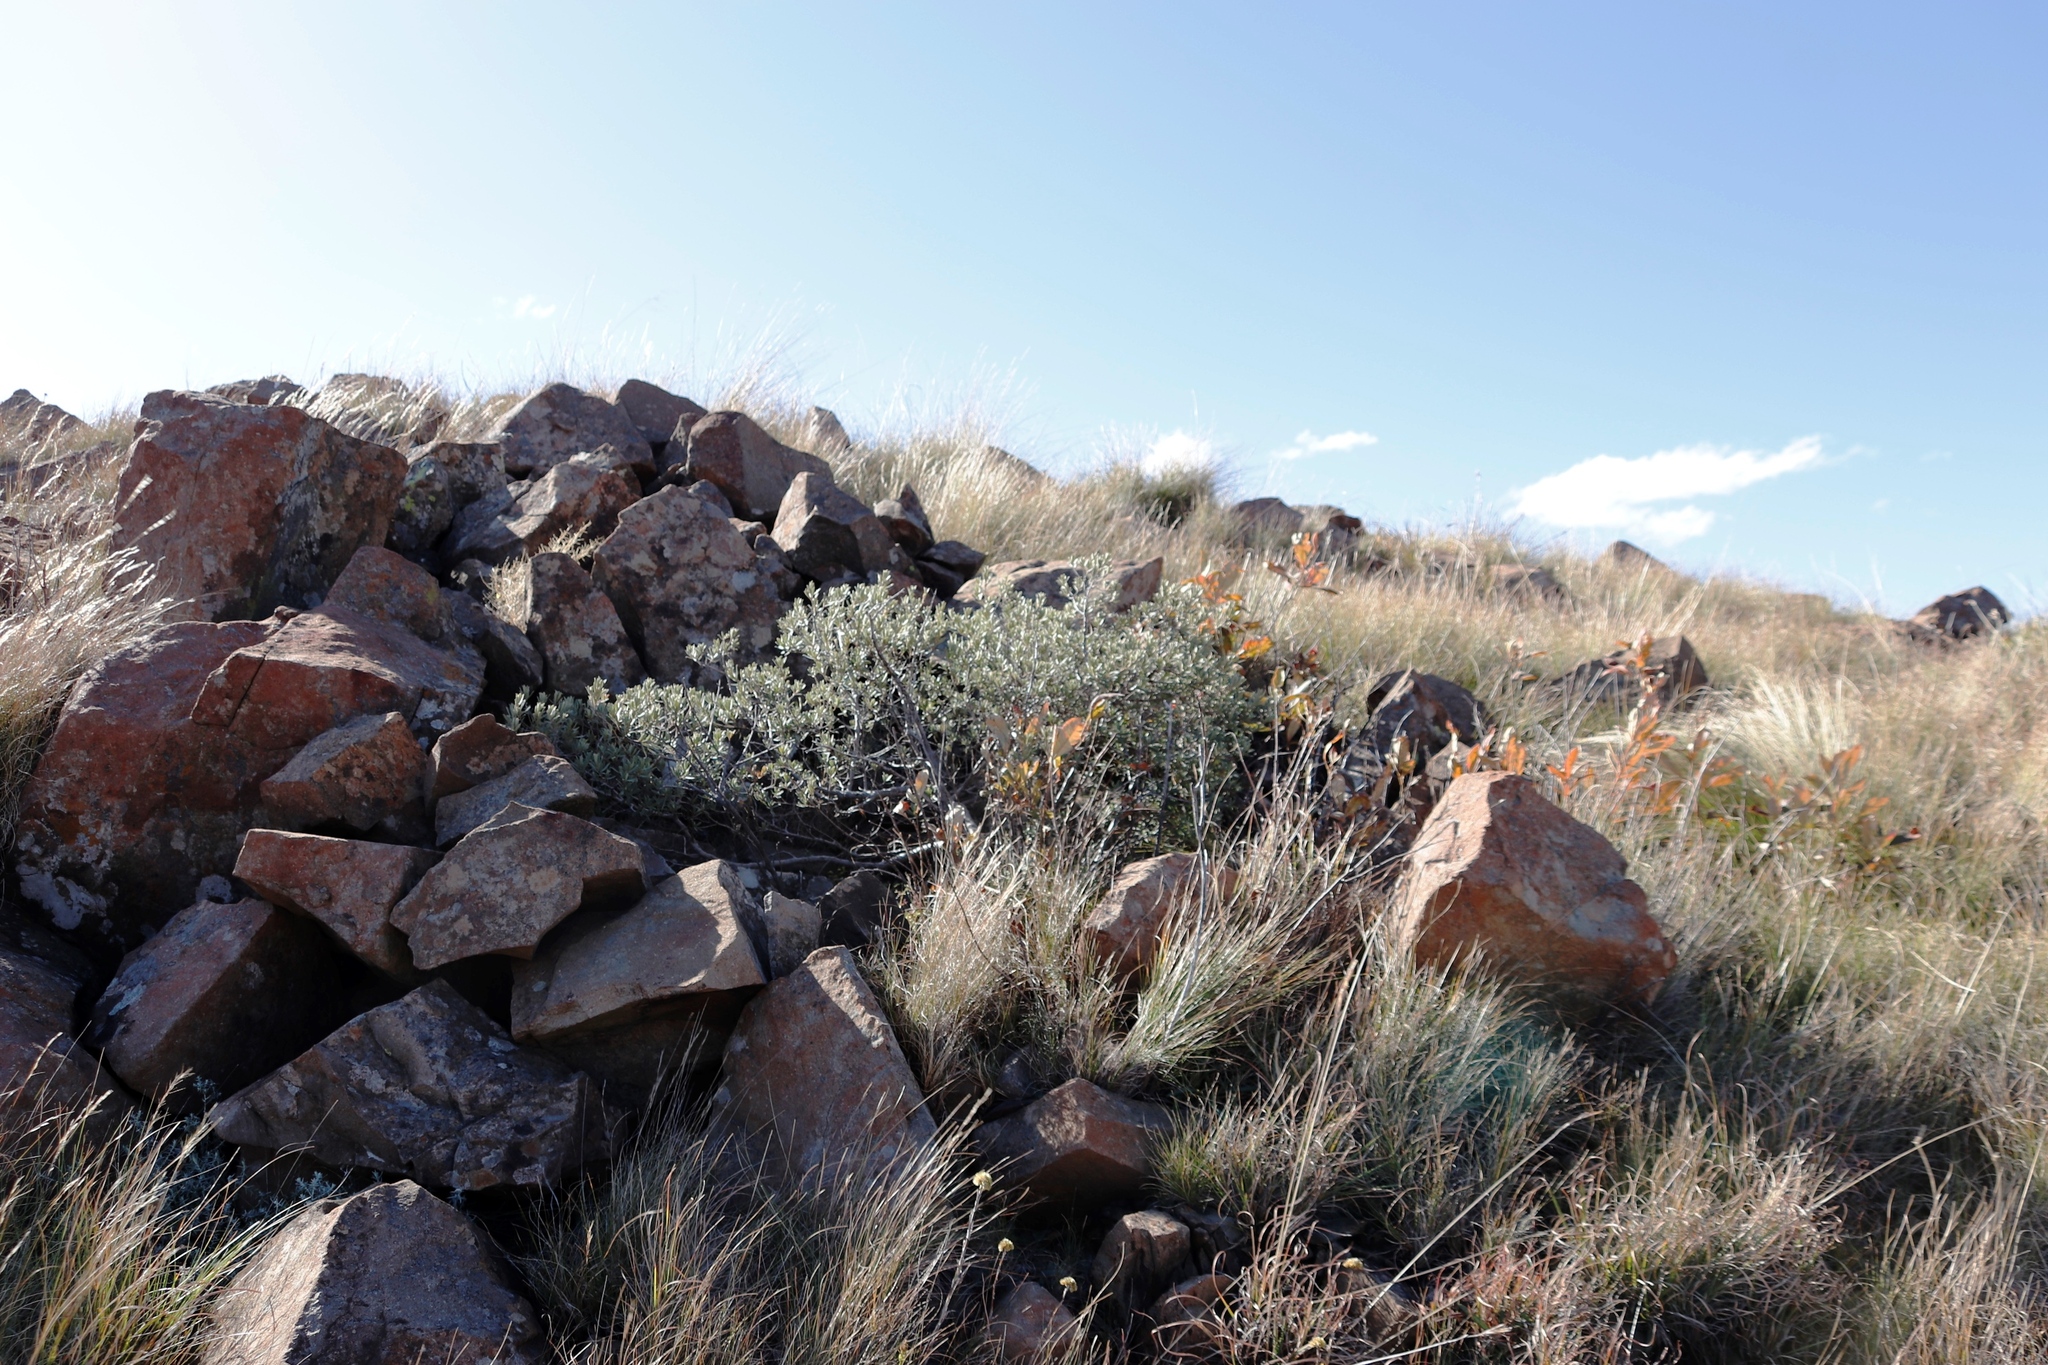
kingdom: Plantae
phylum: Tracheophyta
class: Magnoliopsida
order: Ericales
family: Ebenaceae
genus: Diospyros
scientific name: Diospyros pubescens
